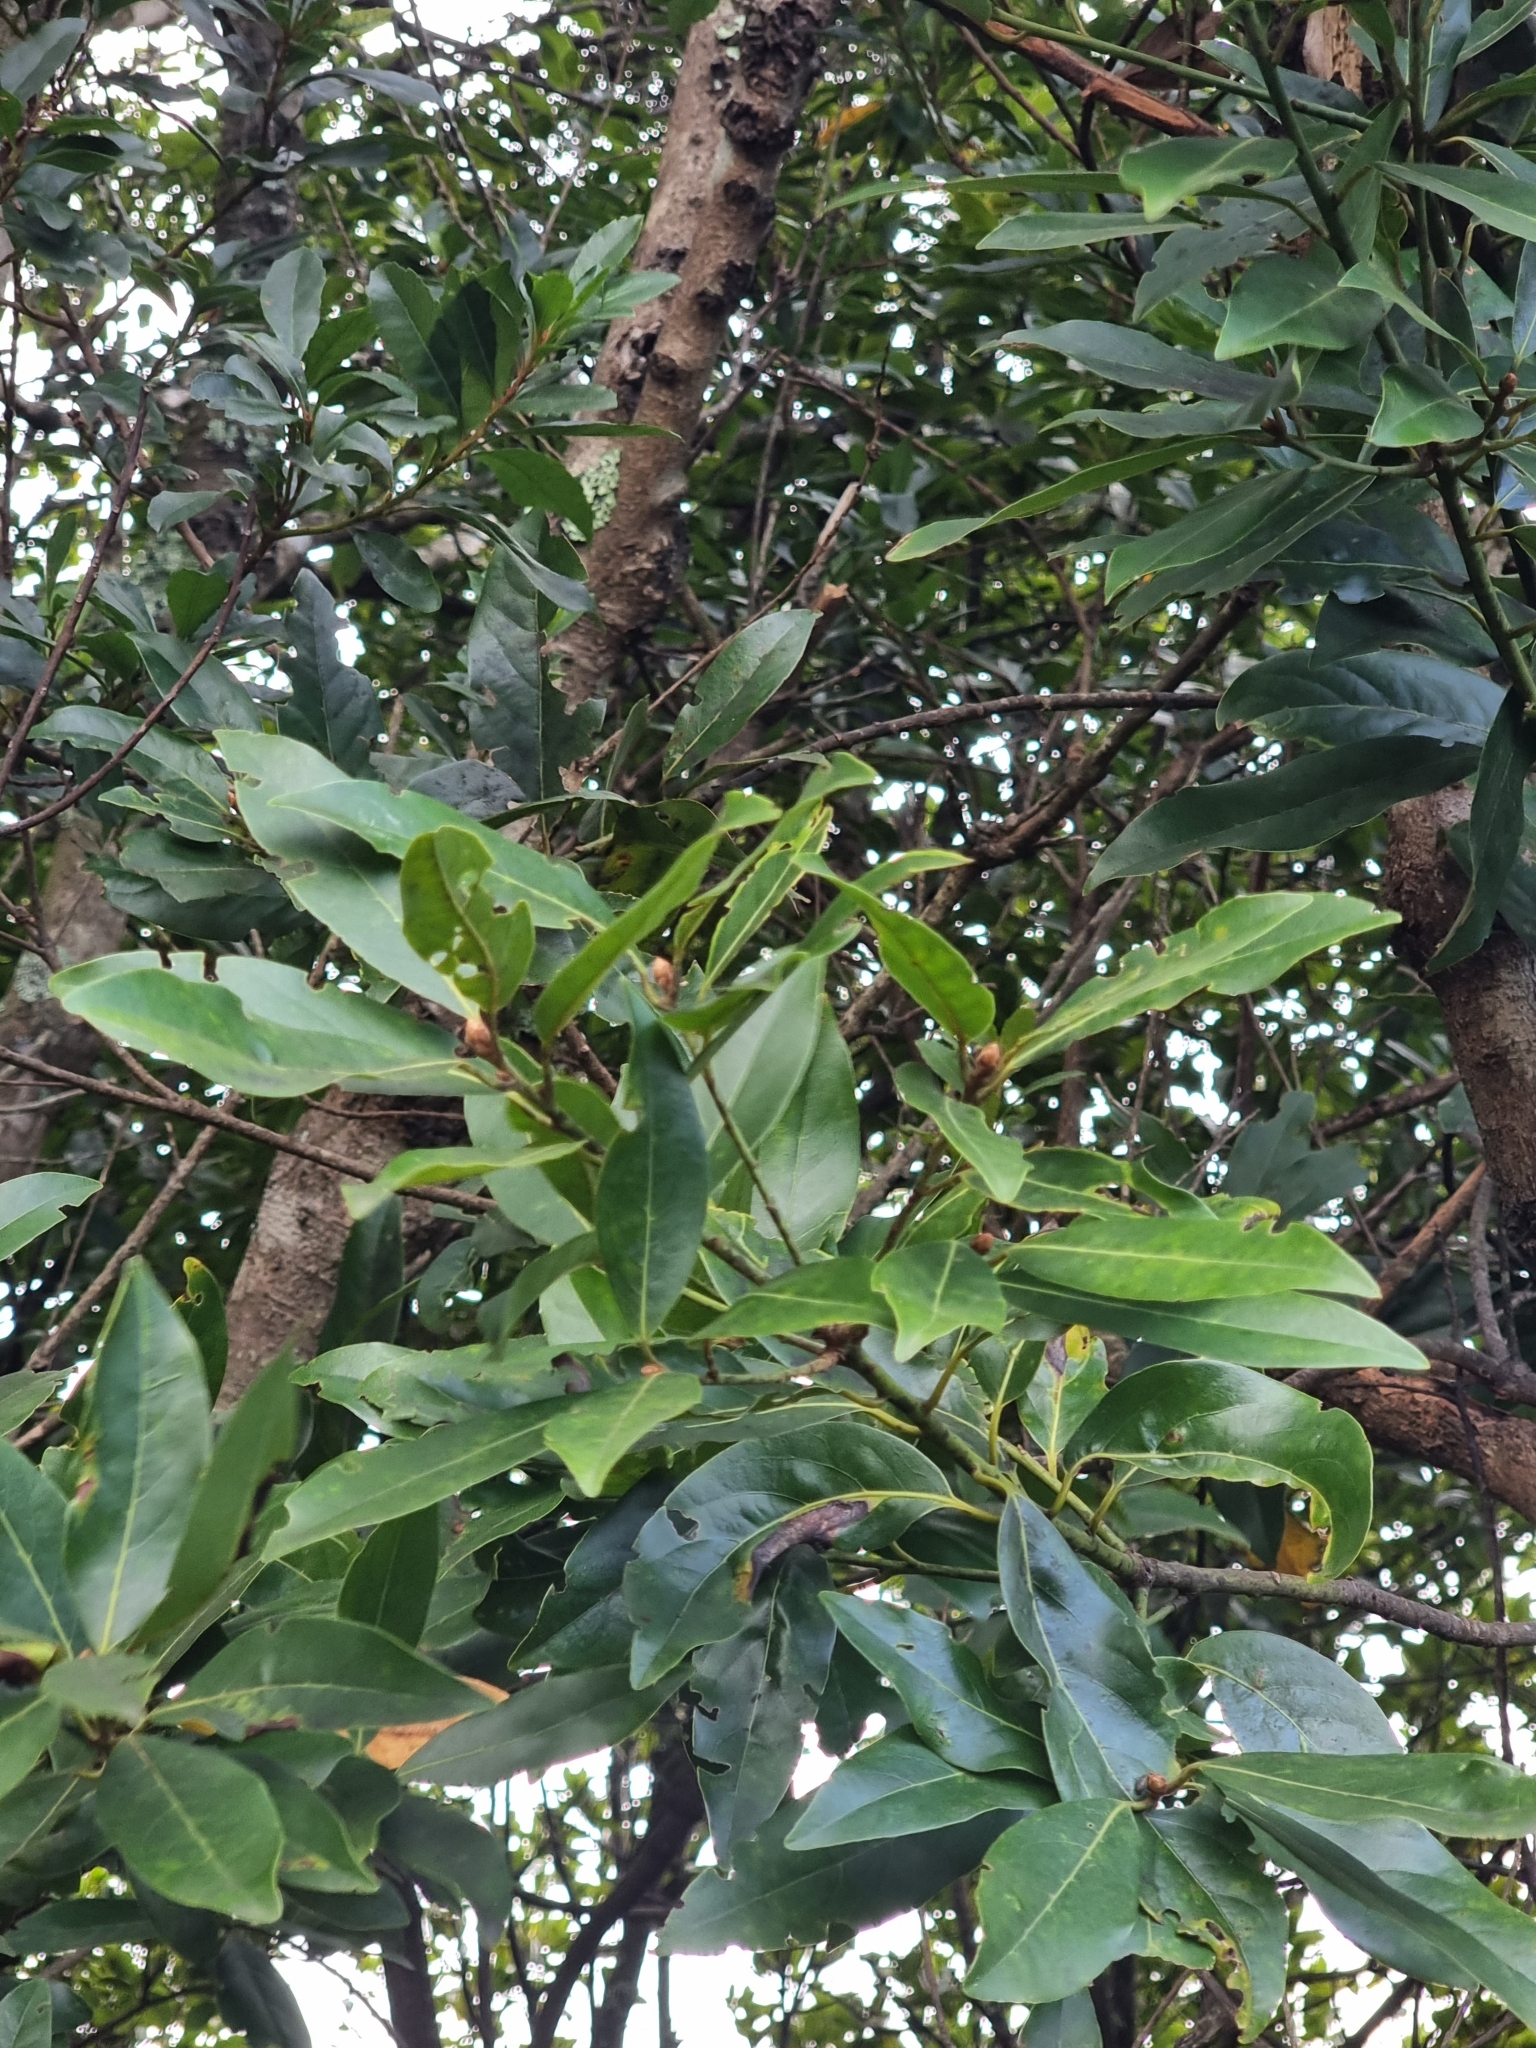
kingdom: Plantae
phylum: Tracheophyta
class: Magnoliopsida
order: Laurales
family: Lauraceae
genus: Laurus
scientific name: Laurus novocanariensis
